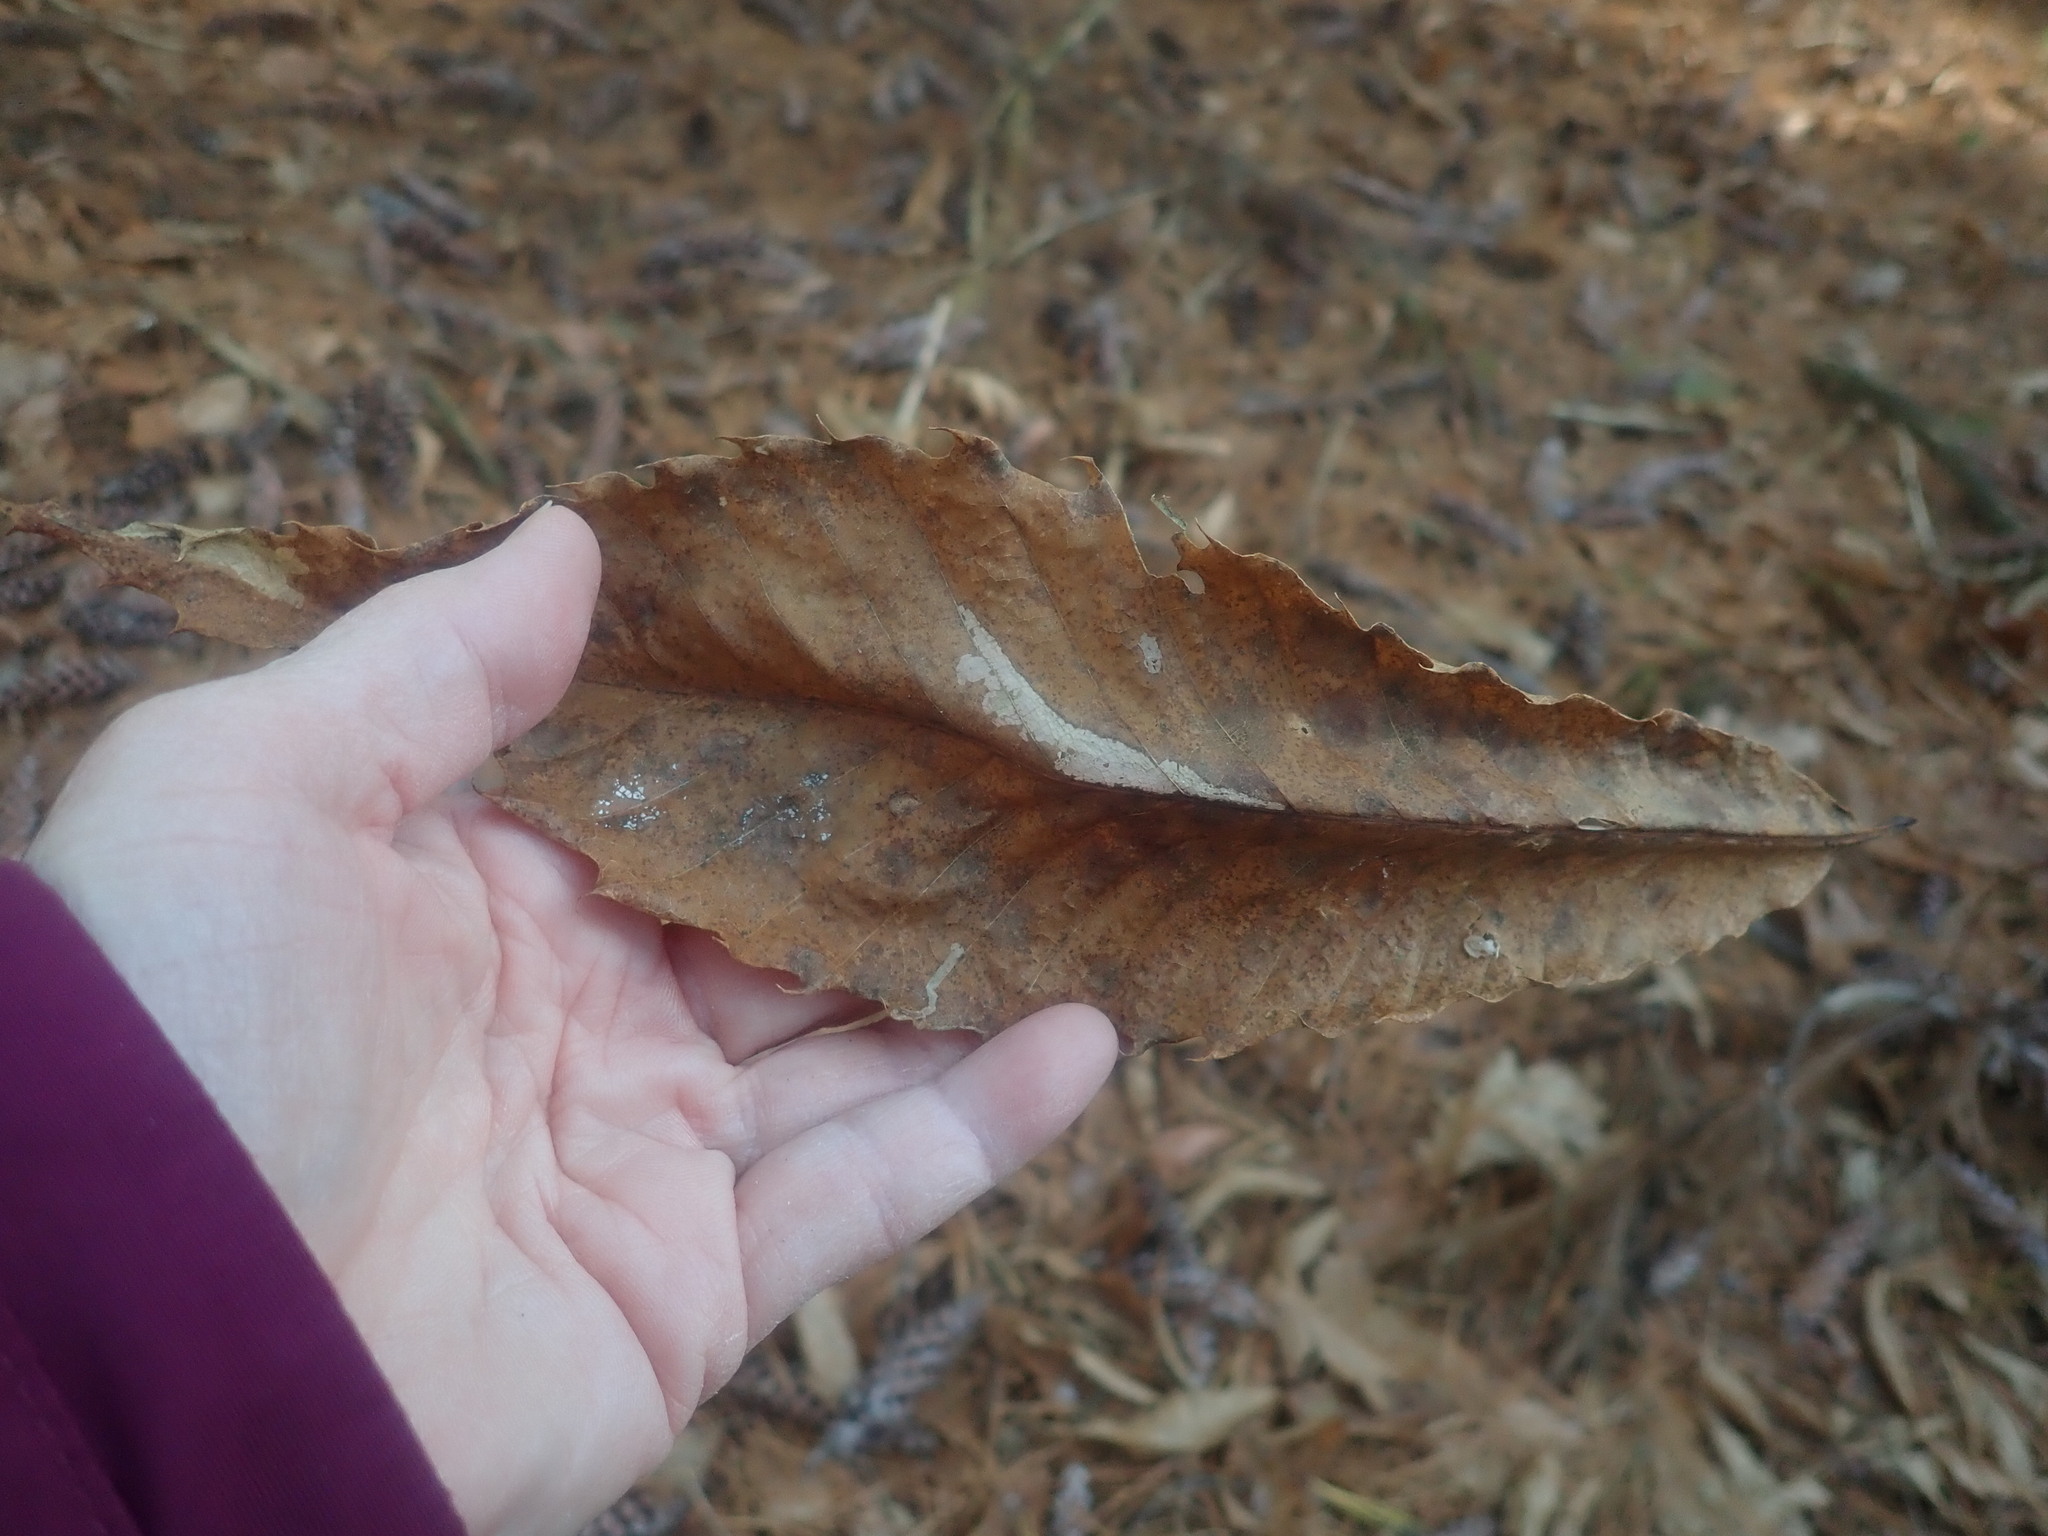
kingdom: Plantae
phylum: Tracheophyta
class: Magnoliopsida
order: Fagales
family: Fagaceae
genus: Castanea
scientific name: Castanea dentata
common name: American chestnut
